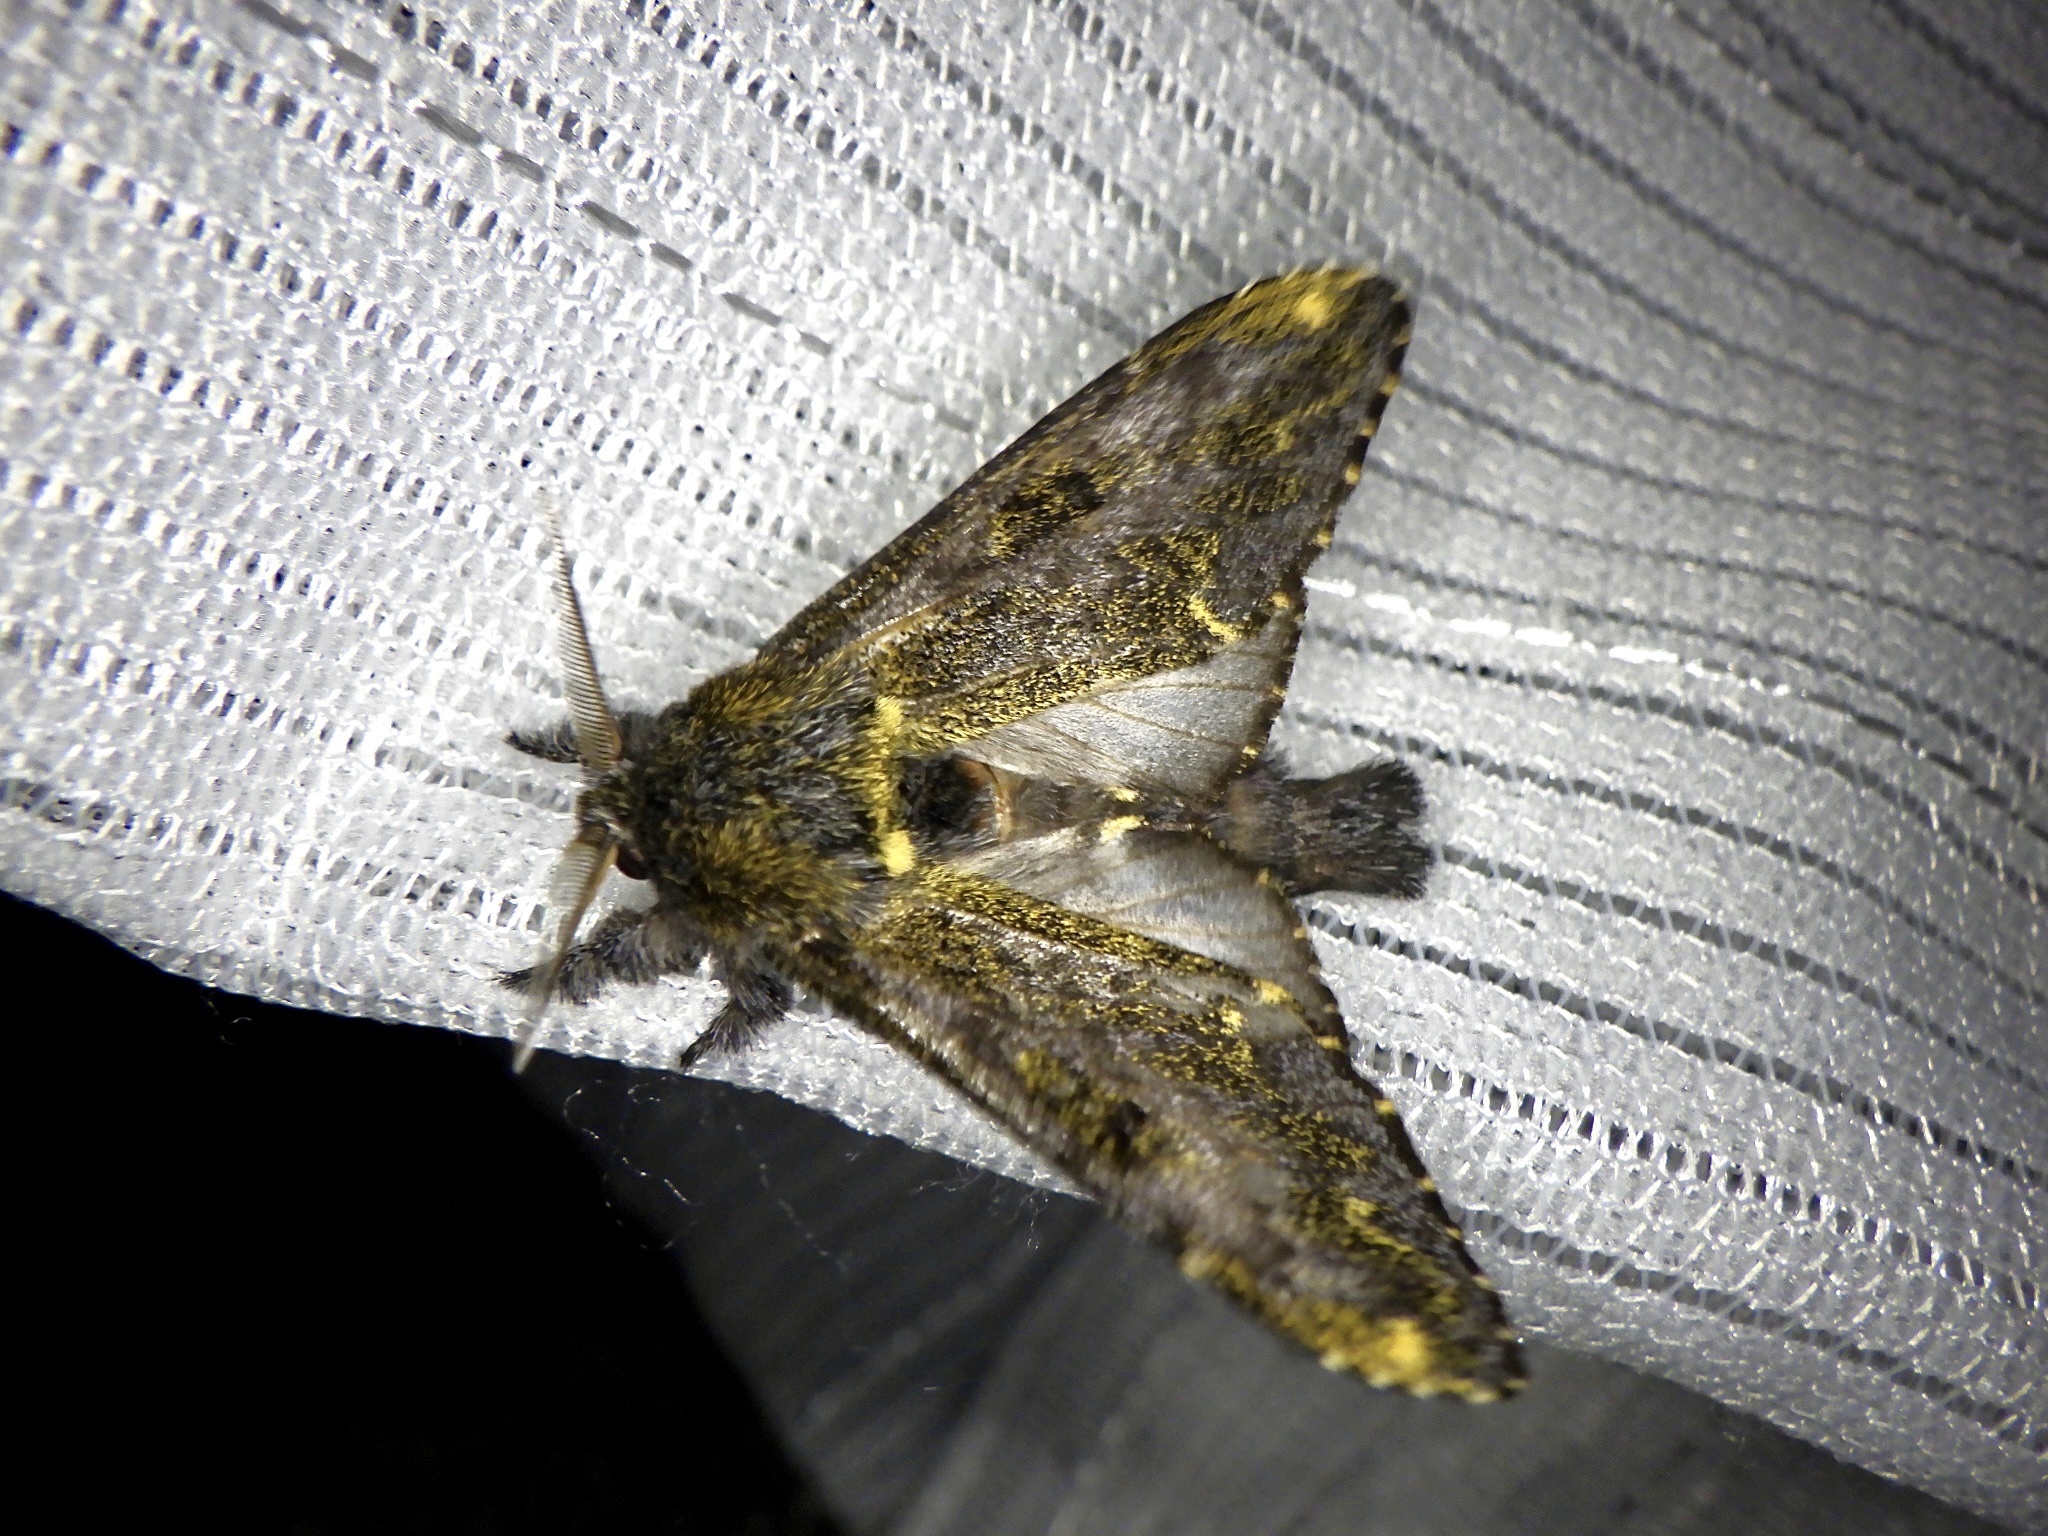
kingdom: Animalia
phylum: Arthropoda
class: Insecta
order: Lepidoptera
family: Notodontidae
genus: Zaranga
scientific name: Zaranga permagna
